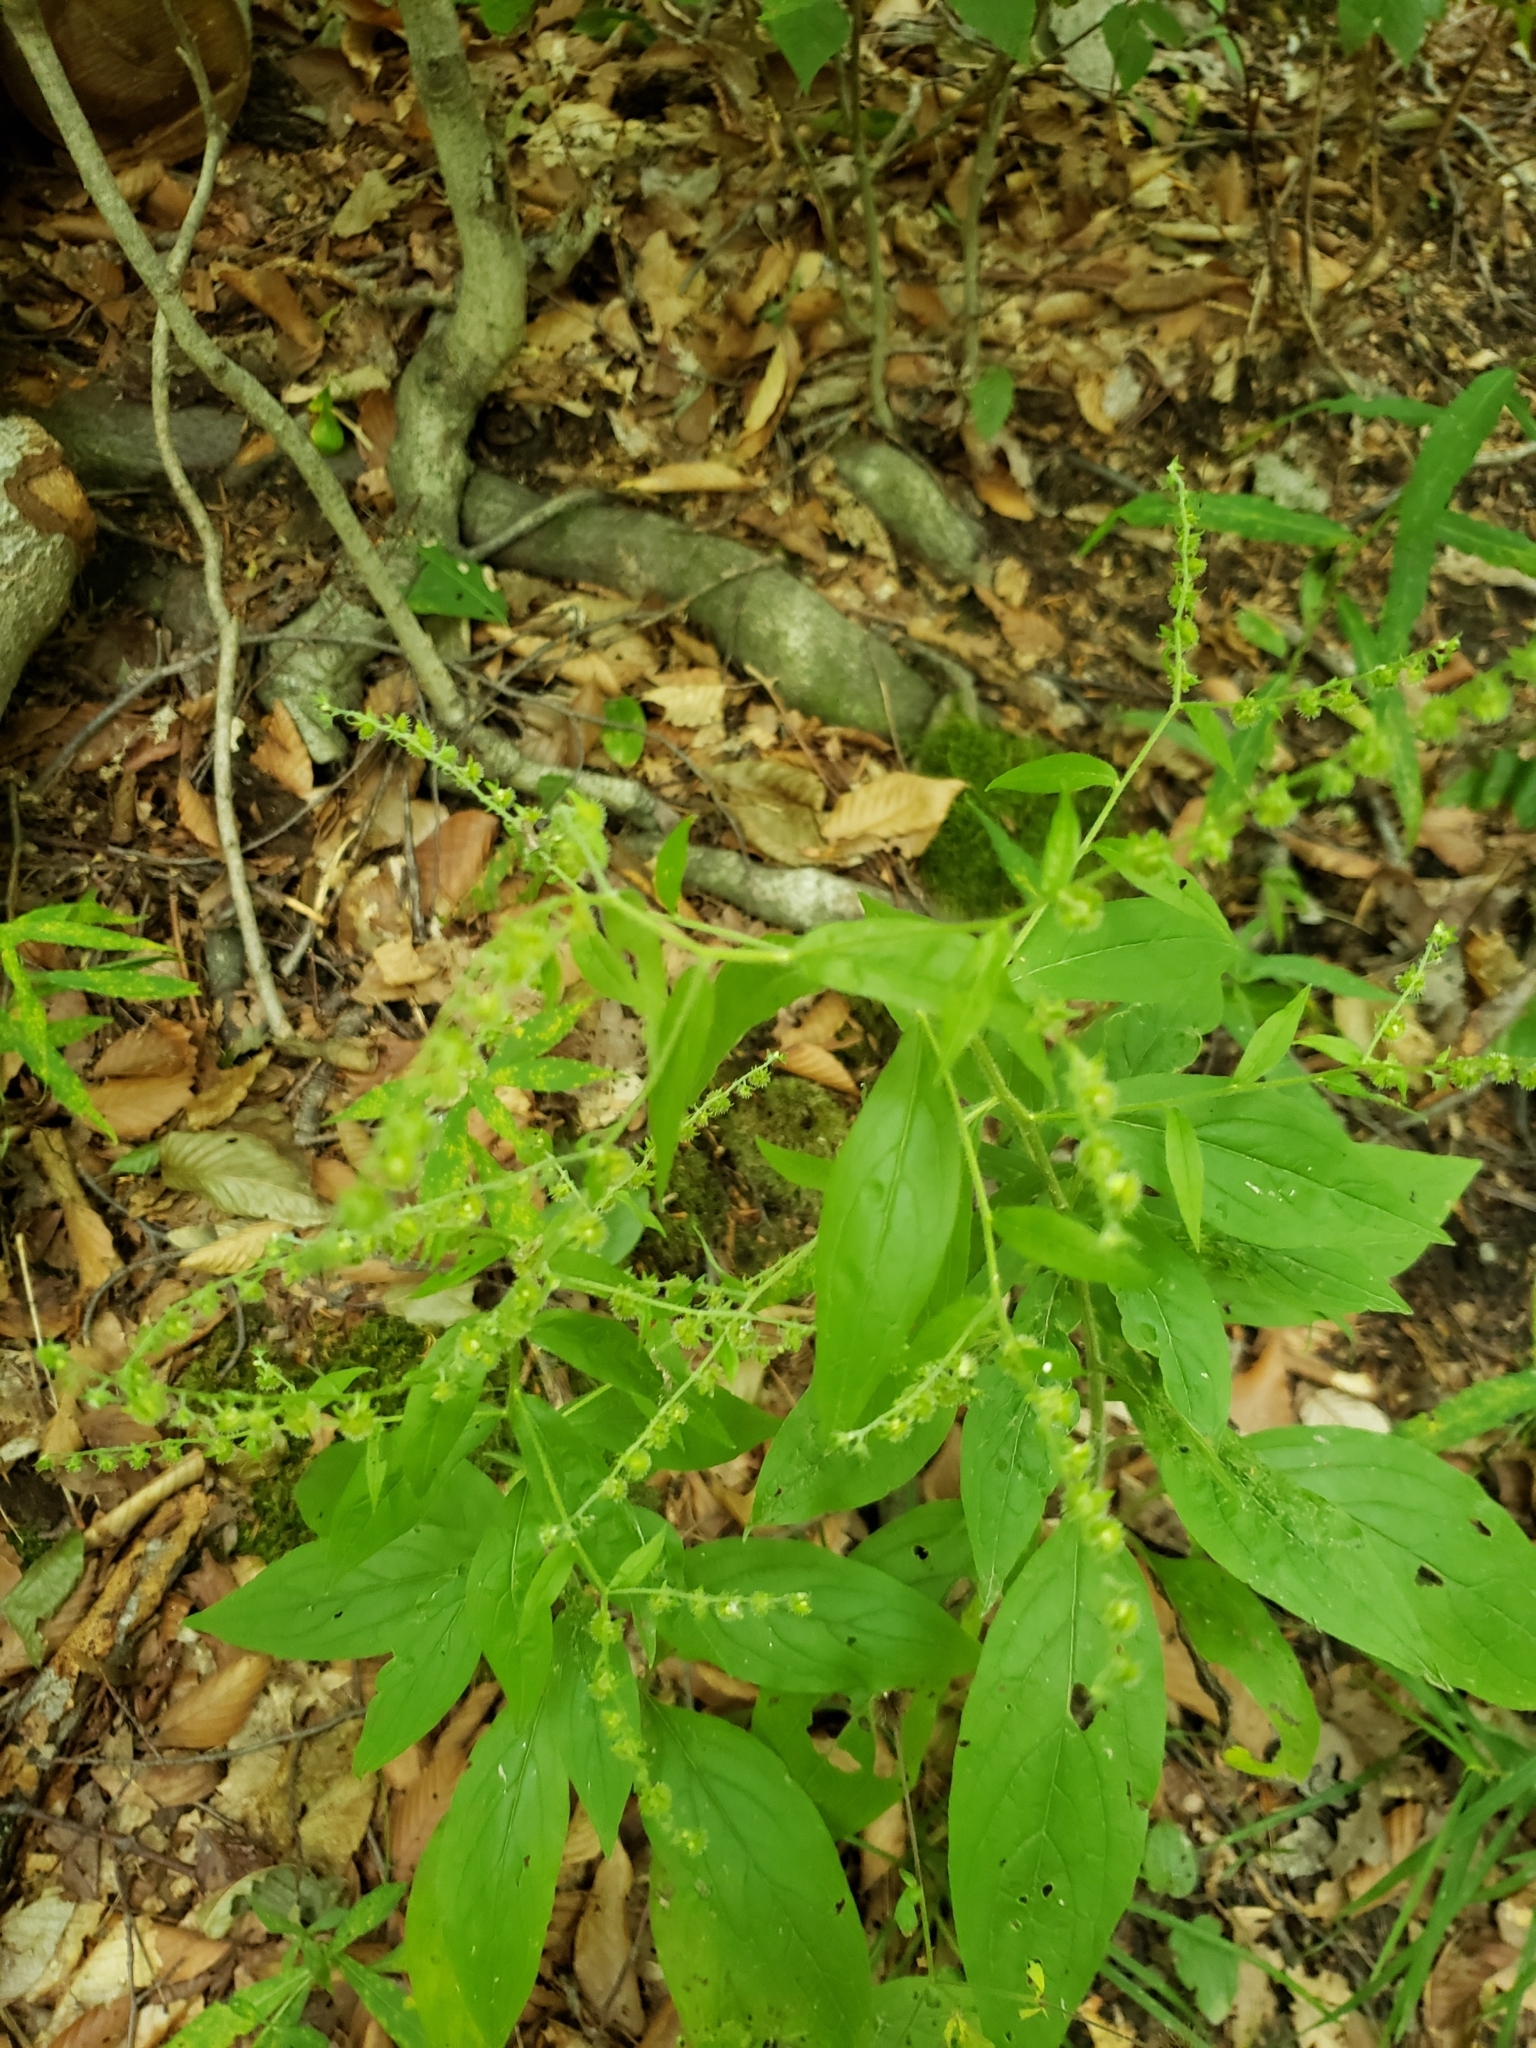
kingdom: Plantae
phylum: Tracheophyta
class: Magnoliopsida
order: Boraginales
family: Boraginaceae
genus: Hackelia
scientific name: Hackelia virginiana
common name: Beggar's-lice
